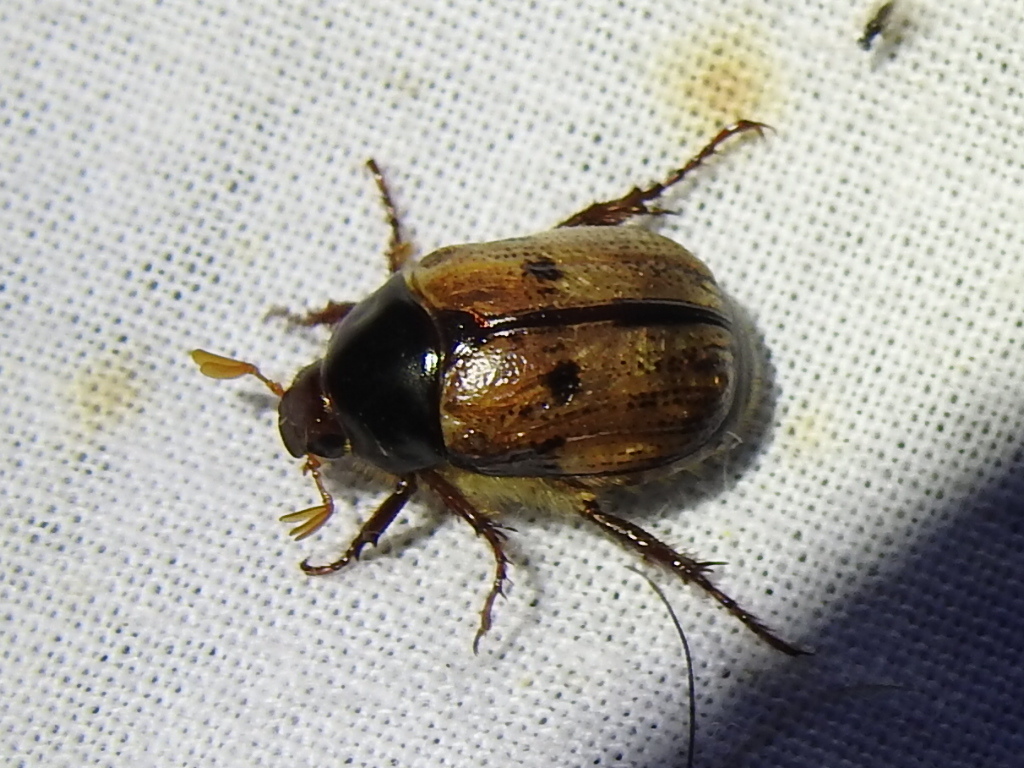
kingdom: Animalia
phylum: Arthropoda
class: Insecta
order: Coleoptera
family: Scarabaeidae
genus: Paranomala
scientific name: Paranomala binotata
